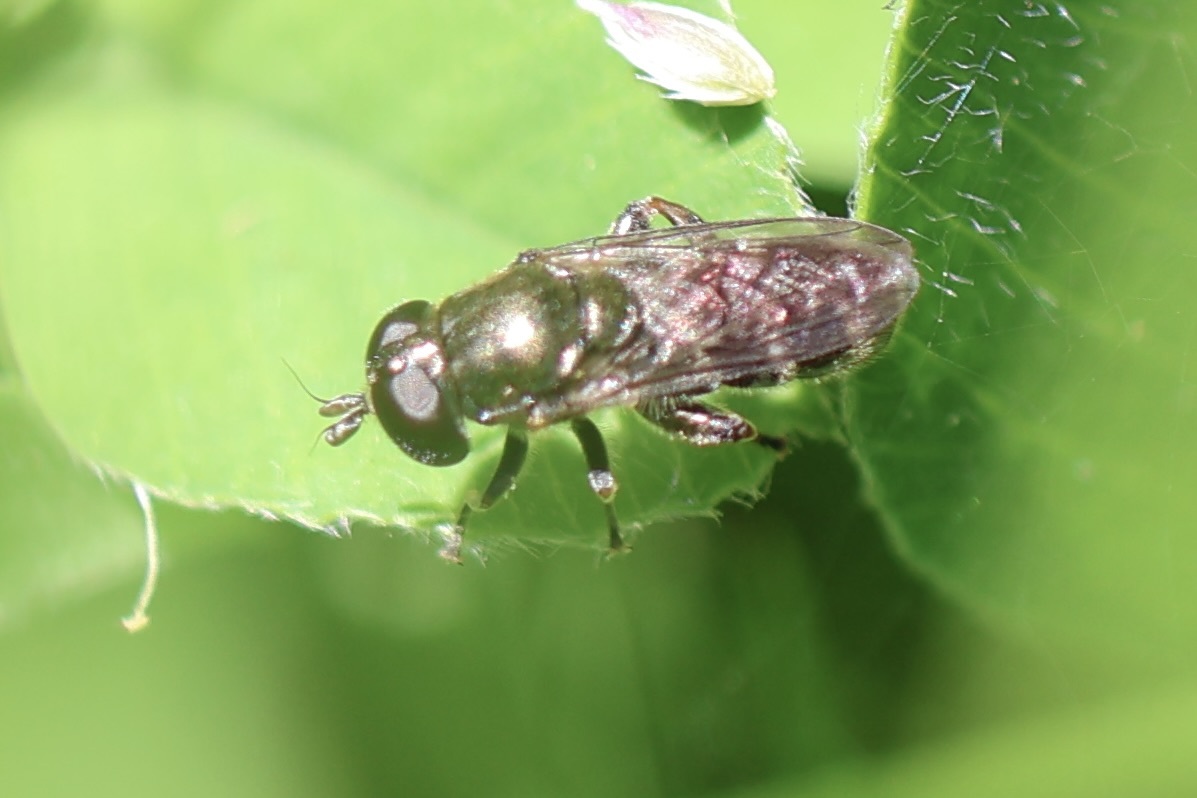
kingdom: Animalia
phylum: Arthropoda
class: Insecta
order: Diptera
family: Syrphidae
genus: Eumerus
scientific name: Eumerus
